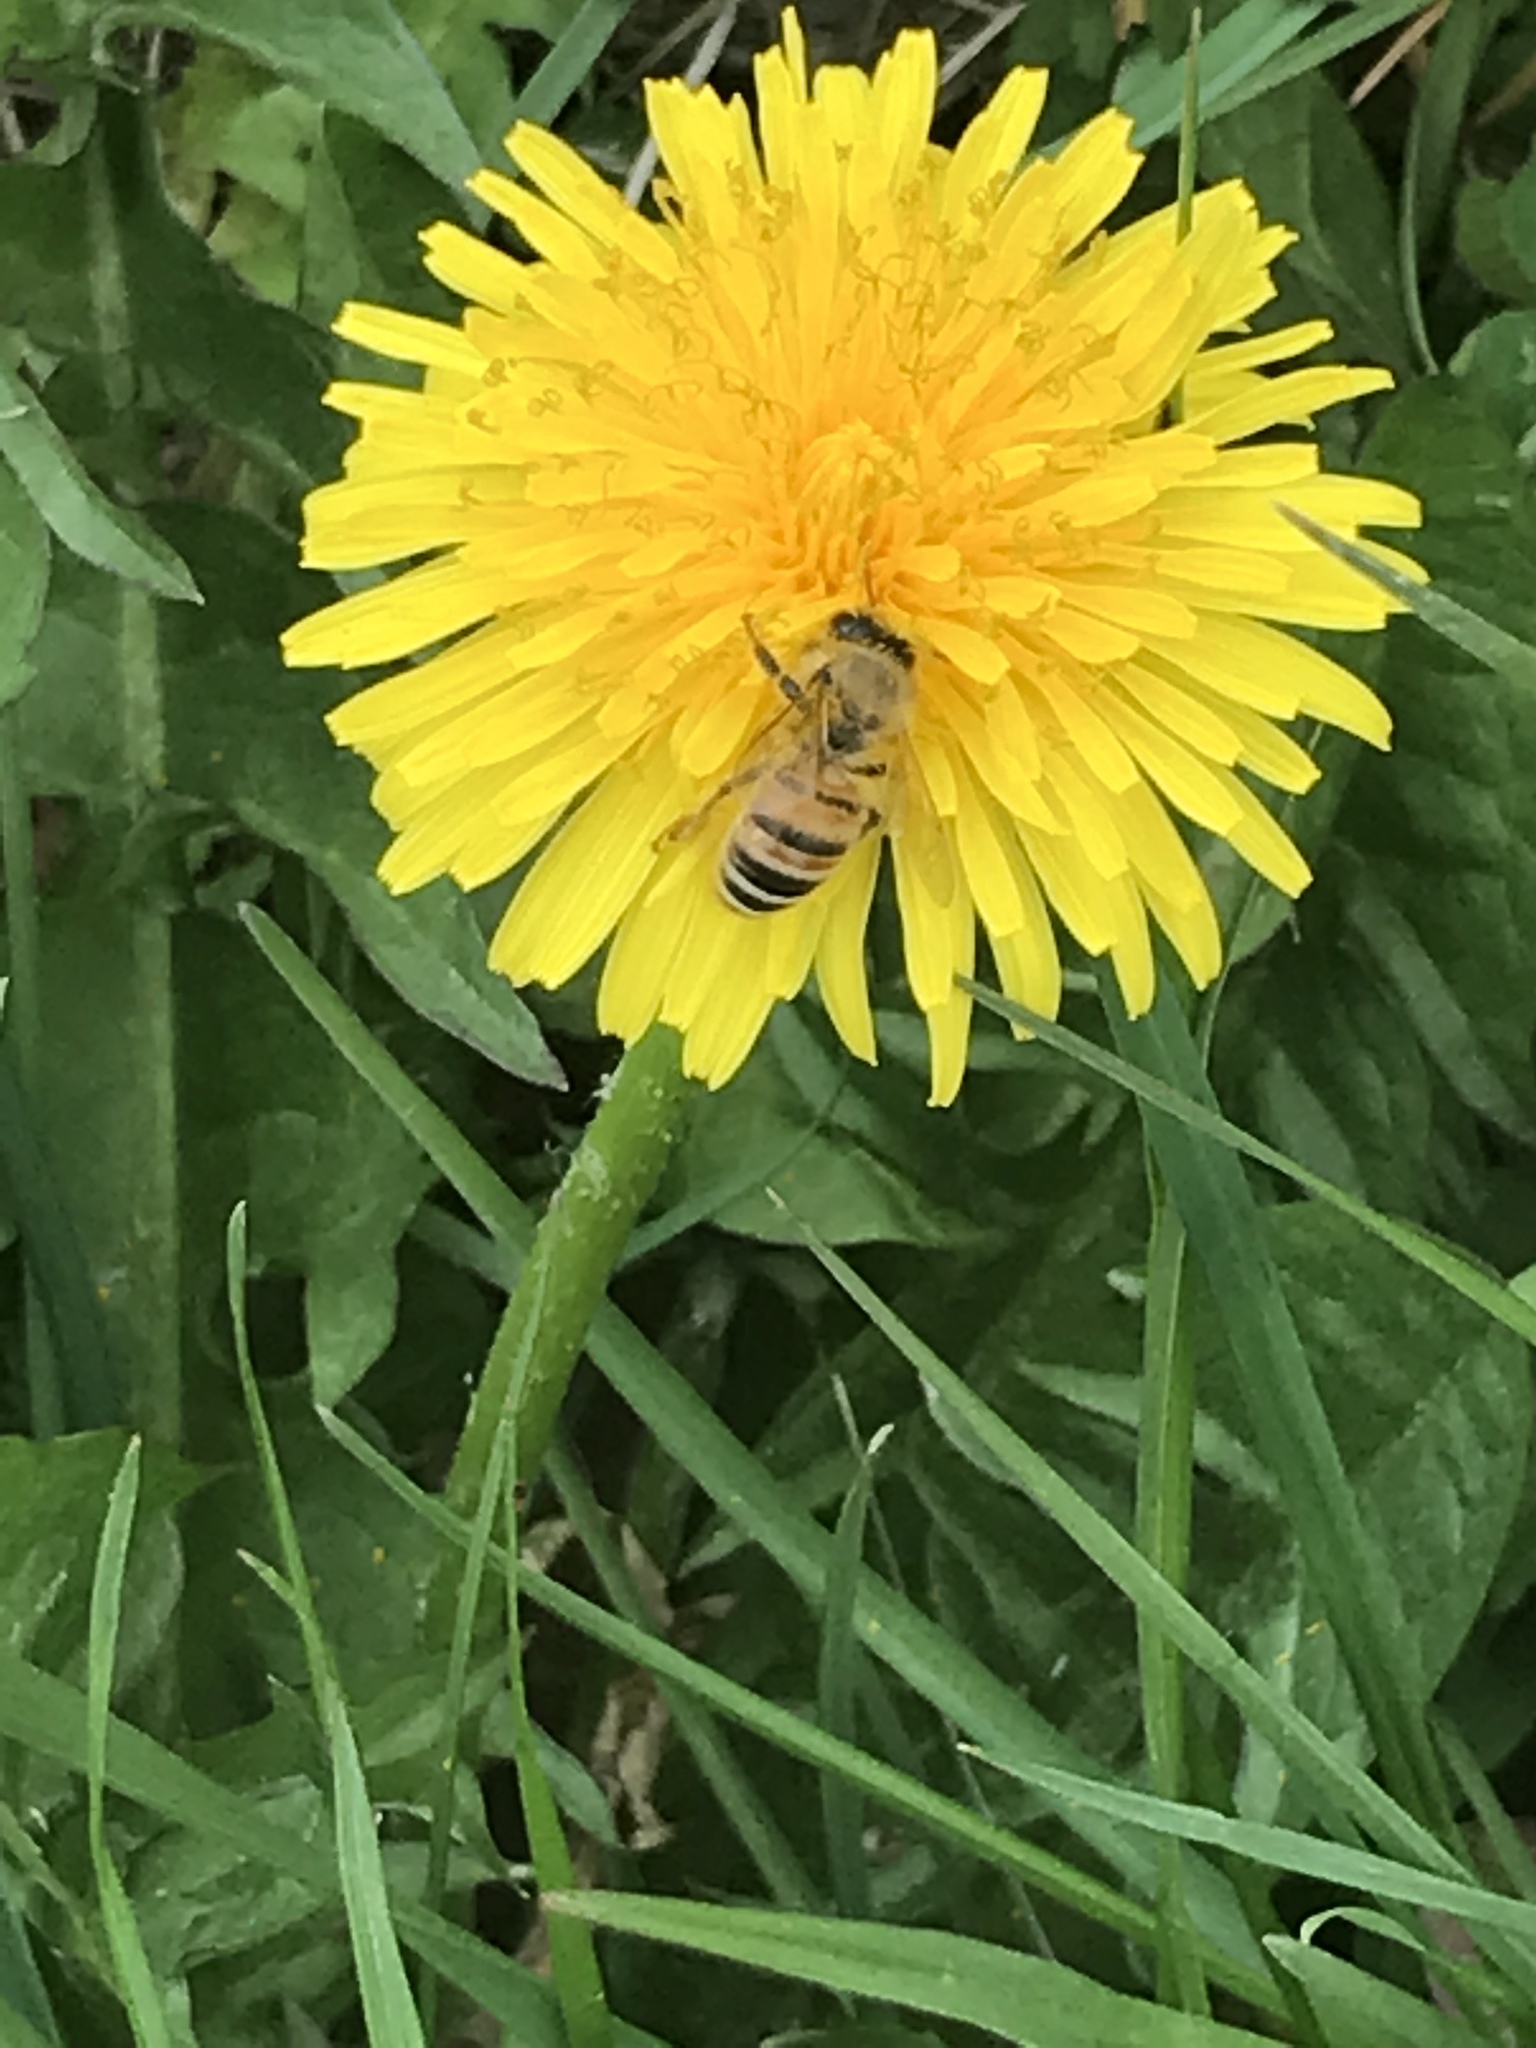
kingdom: Animalia
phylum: Arthropoda
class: Insecta
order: Hymenoptera
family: Apidae
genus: Apis
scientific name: Apis mellifera
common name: Honey bee
